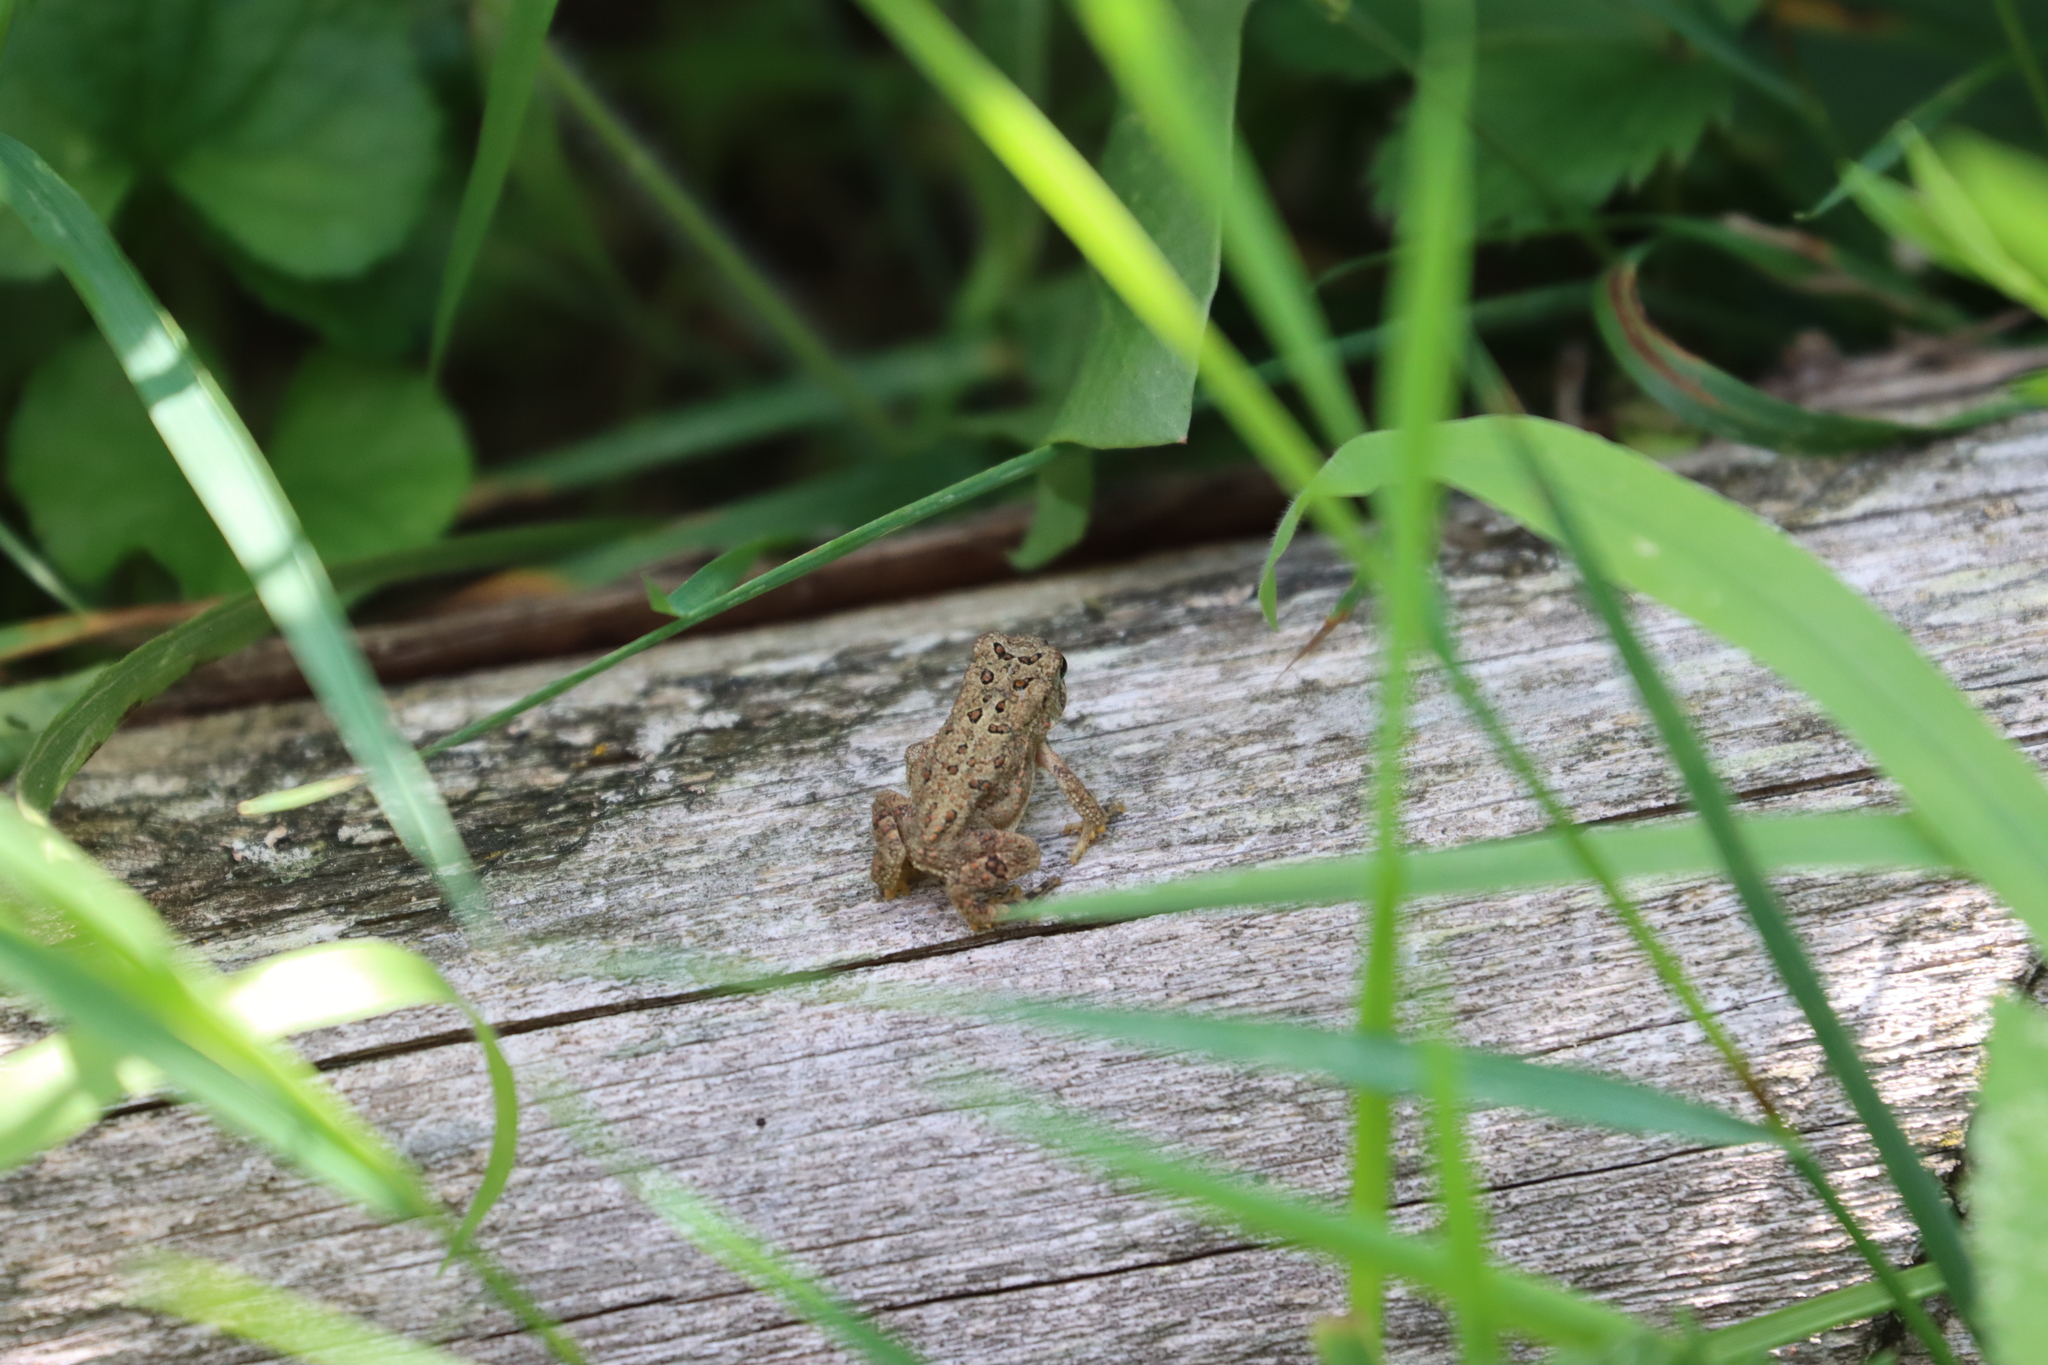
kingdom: Animalia
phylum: Chordata
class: Amphibia
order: Anura
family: Bufonidae
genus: Anaxyrus
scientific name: Anaxyrus americanus
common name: American toad
